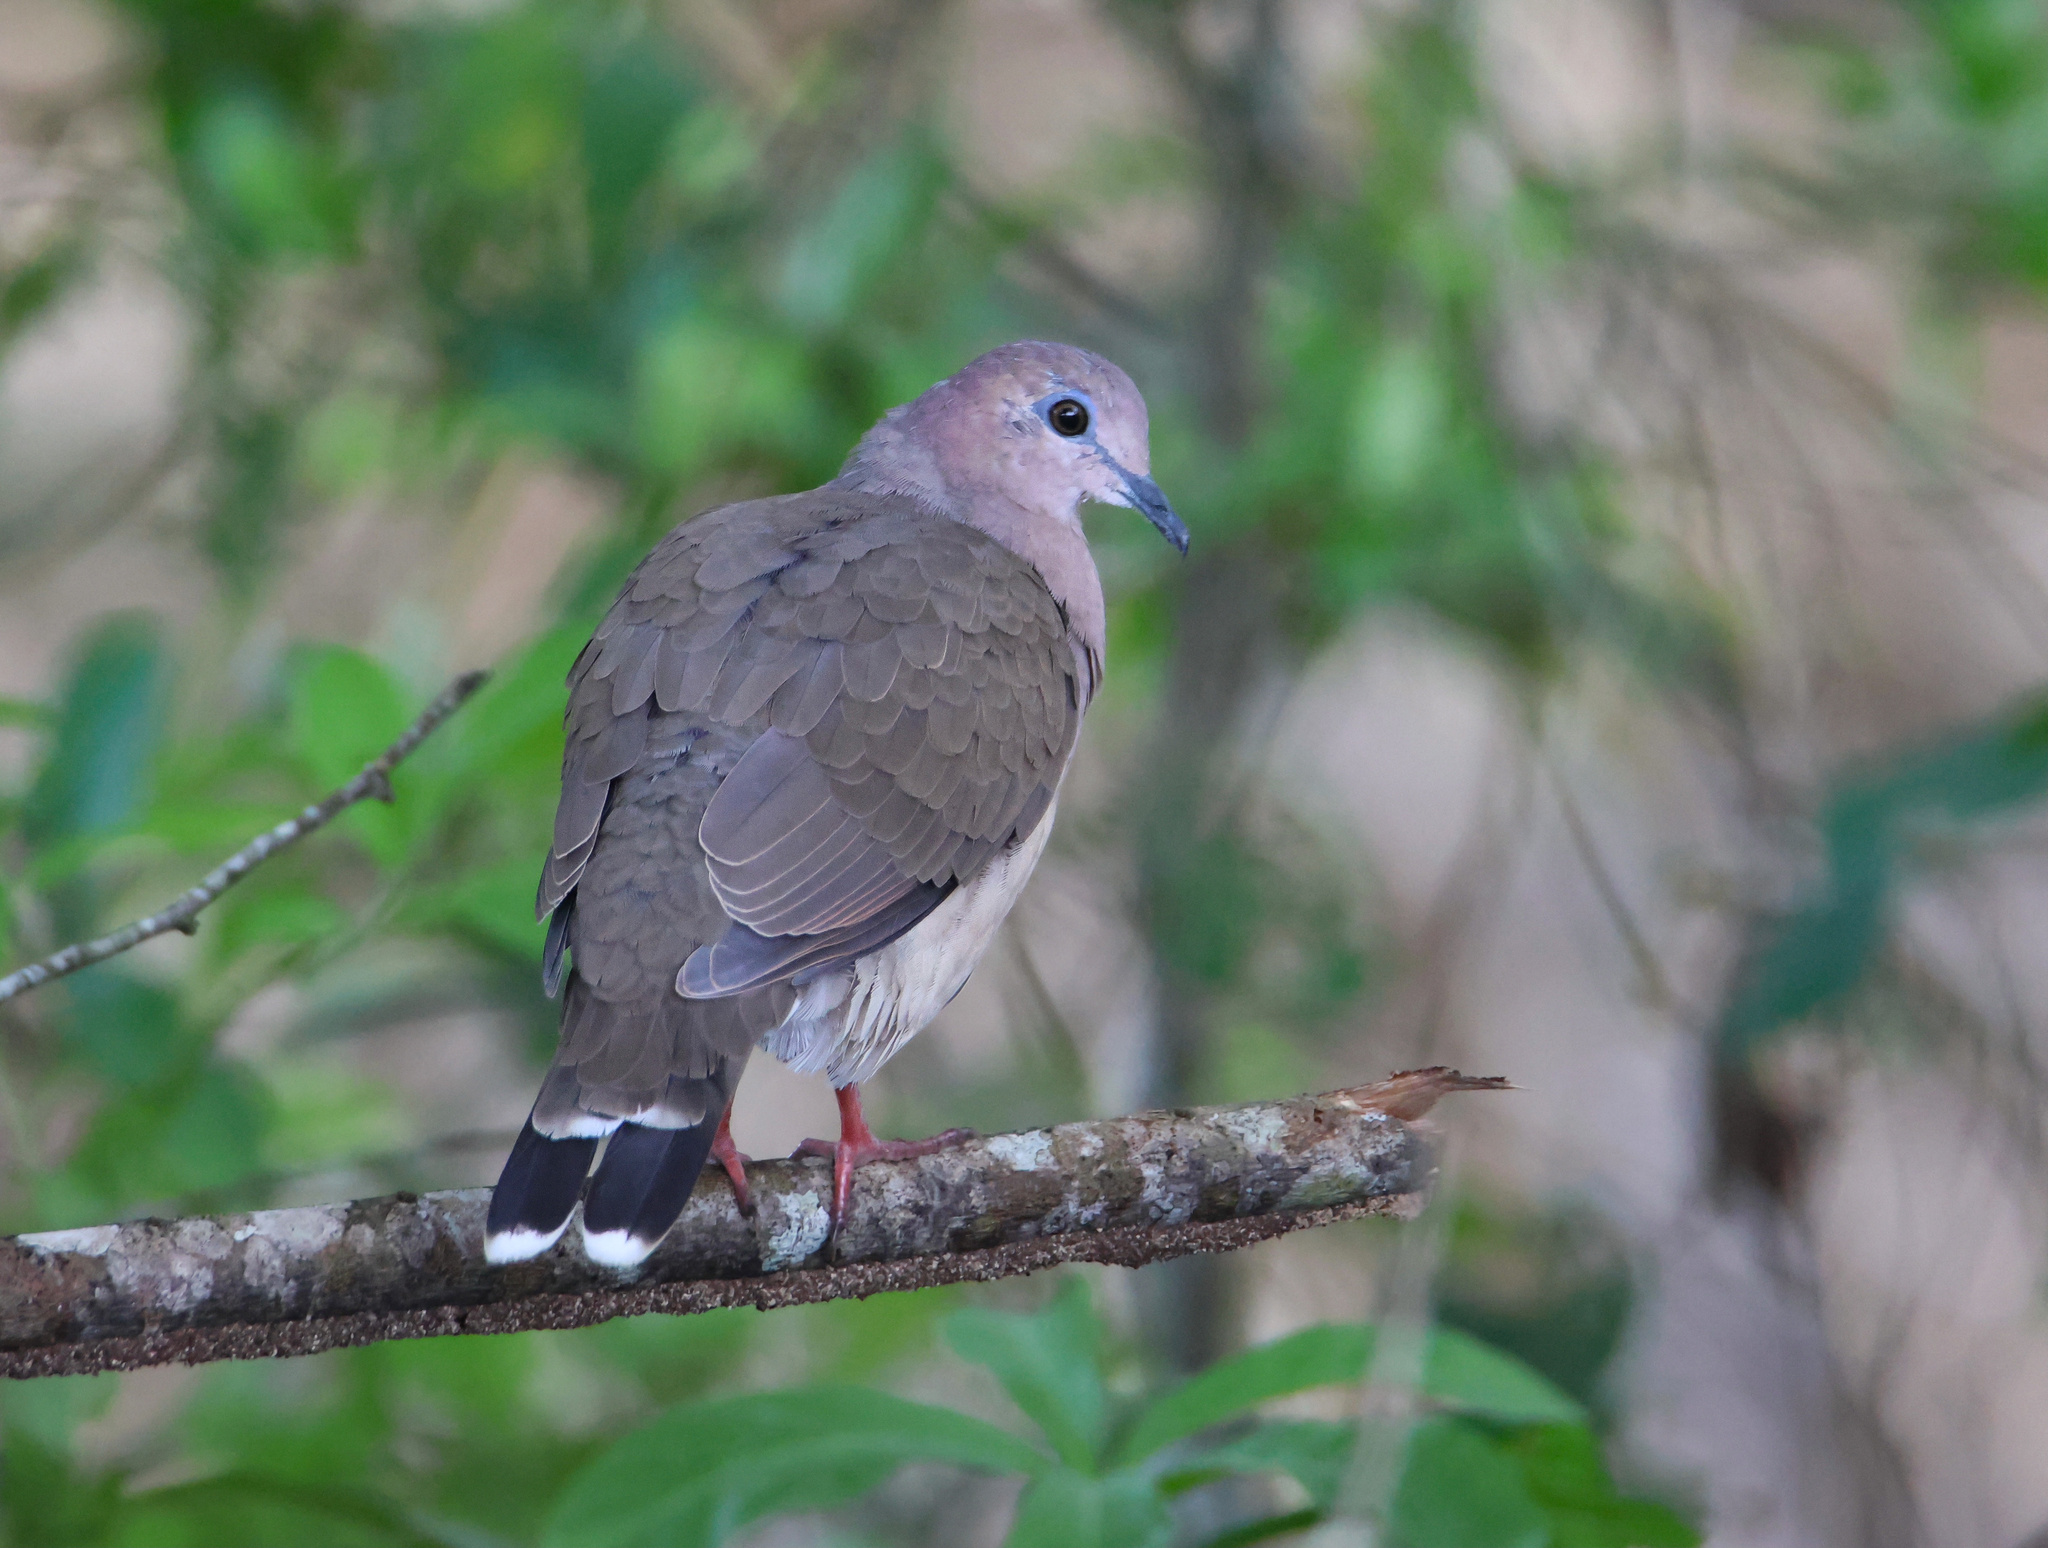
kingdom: Animalia
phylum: Chordata
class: Aves
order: Columbiformes
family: Columbidae
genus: Leptotila
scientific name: Leptotila verreauxi
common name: White-tipped dove
